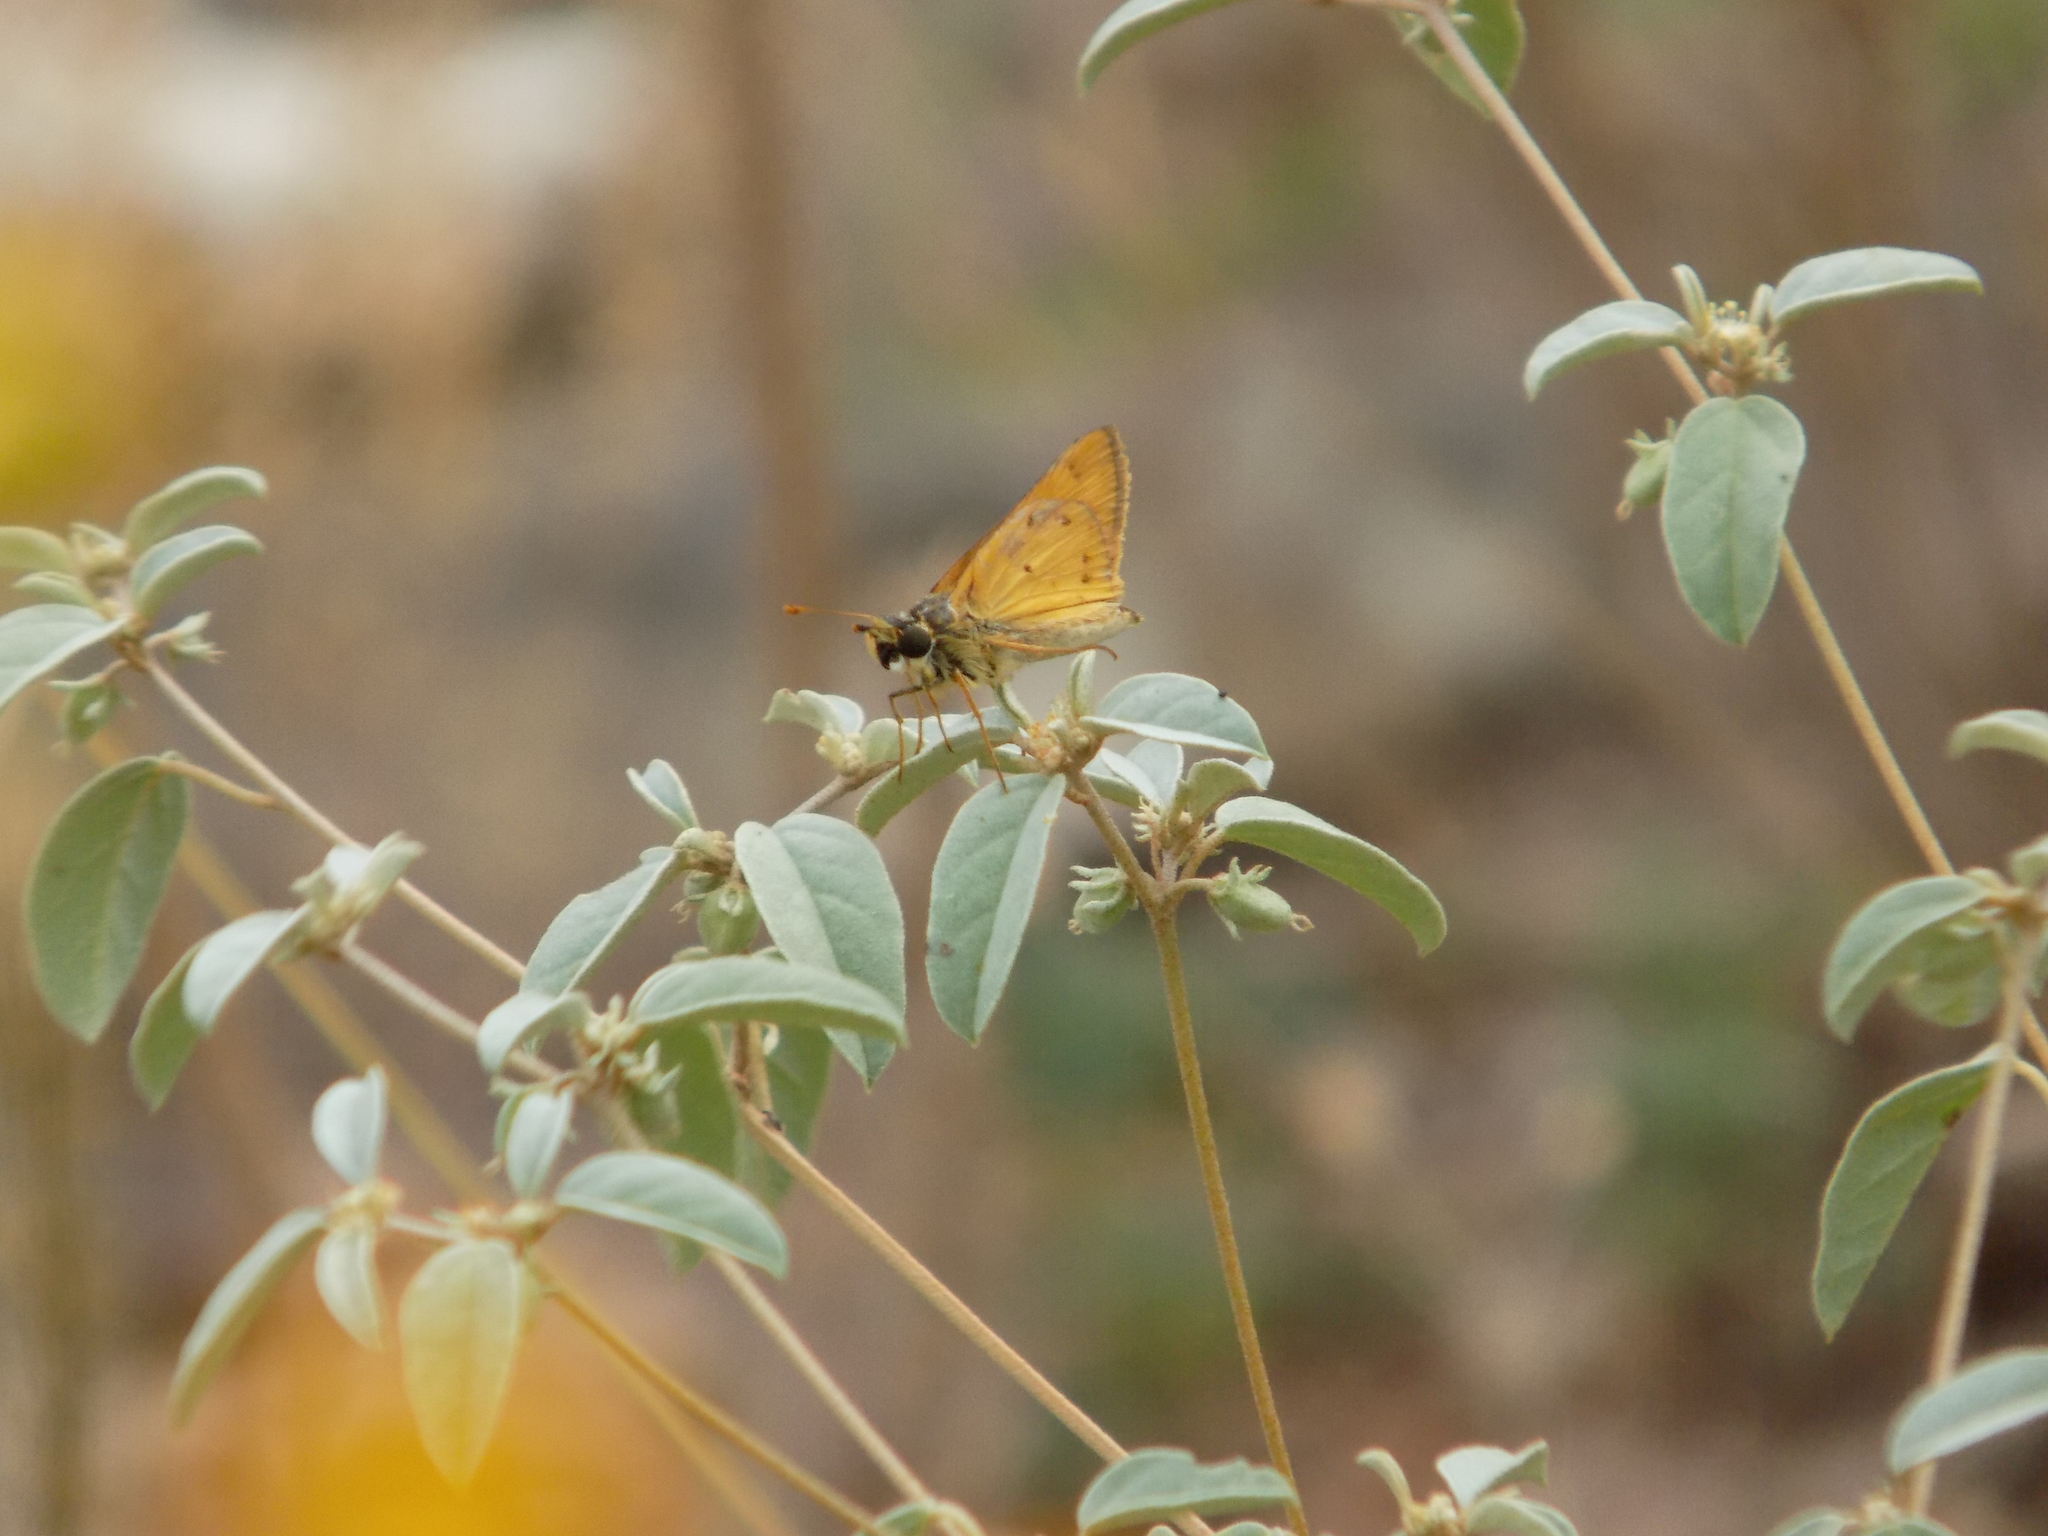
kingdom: Animalia
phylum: Arthropoda
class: Insecta
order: Lepidoptera
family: Hesperiidae
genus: Hylephila
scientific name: Hylephila phyleus
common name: Fiery skipper
